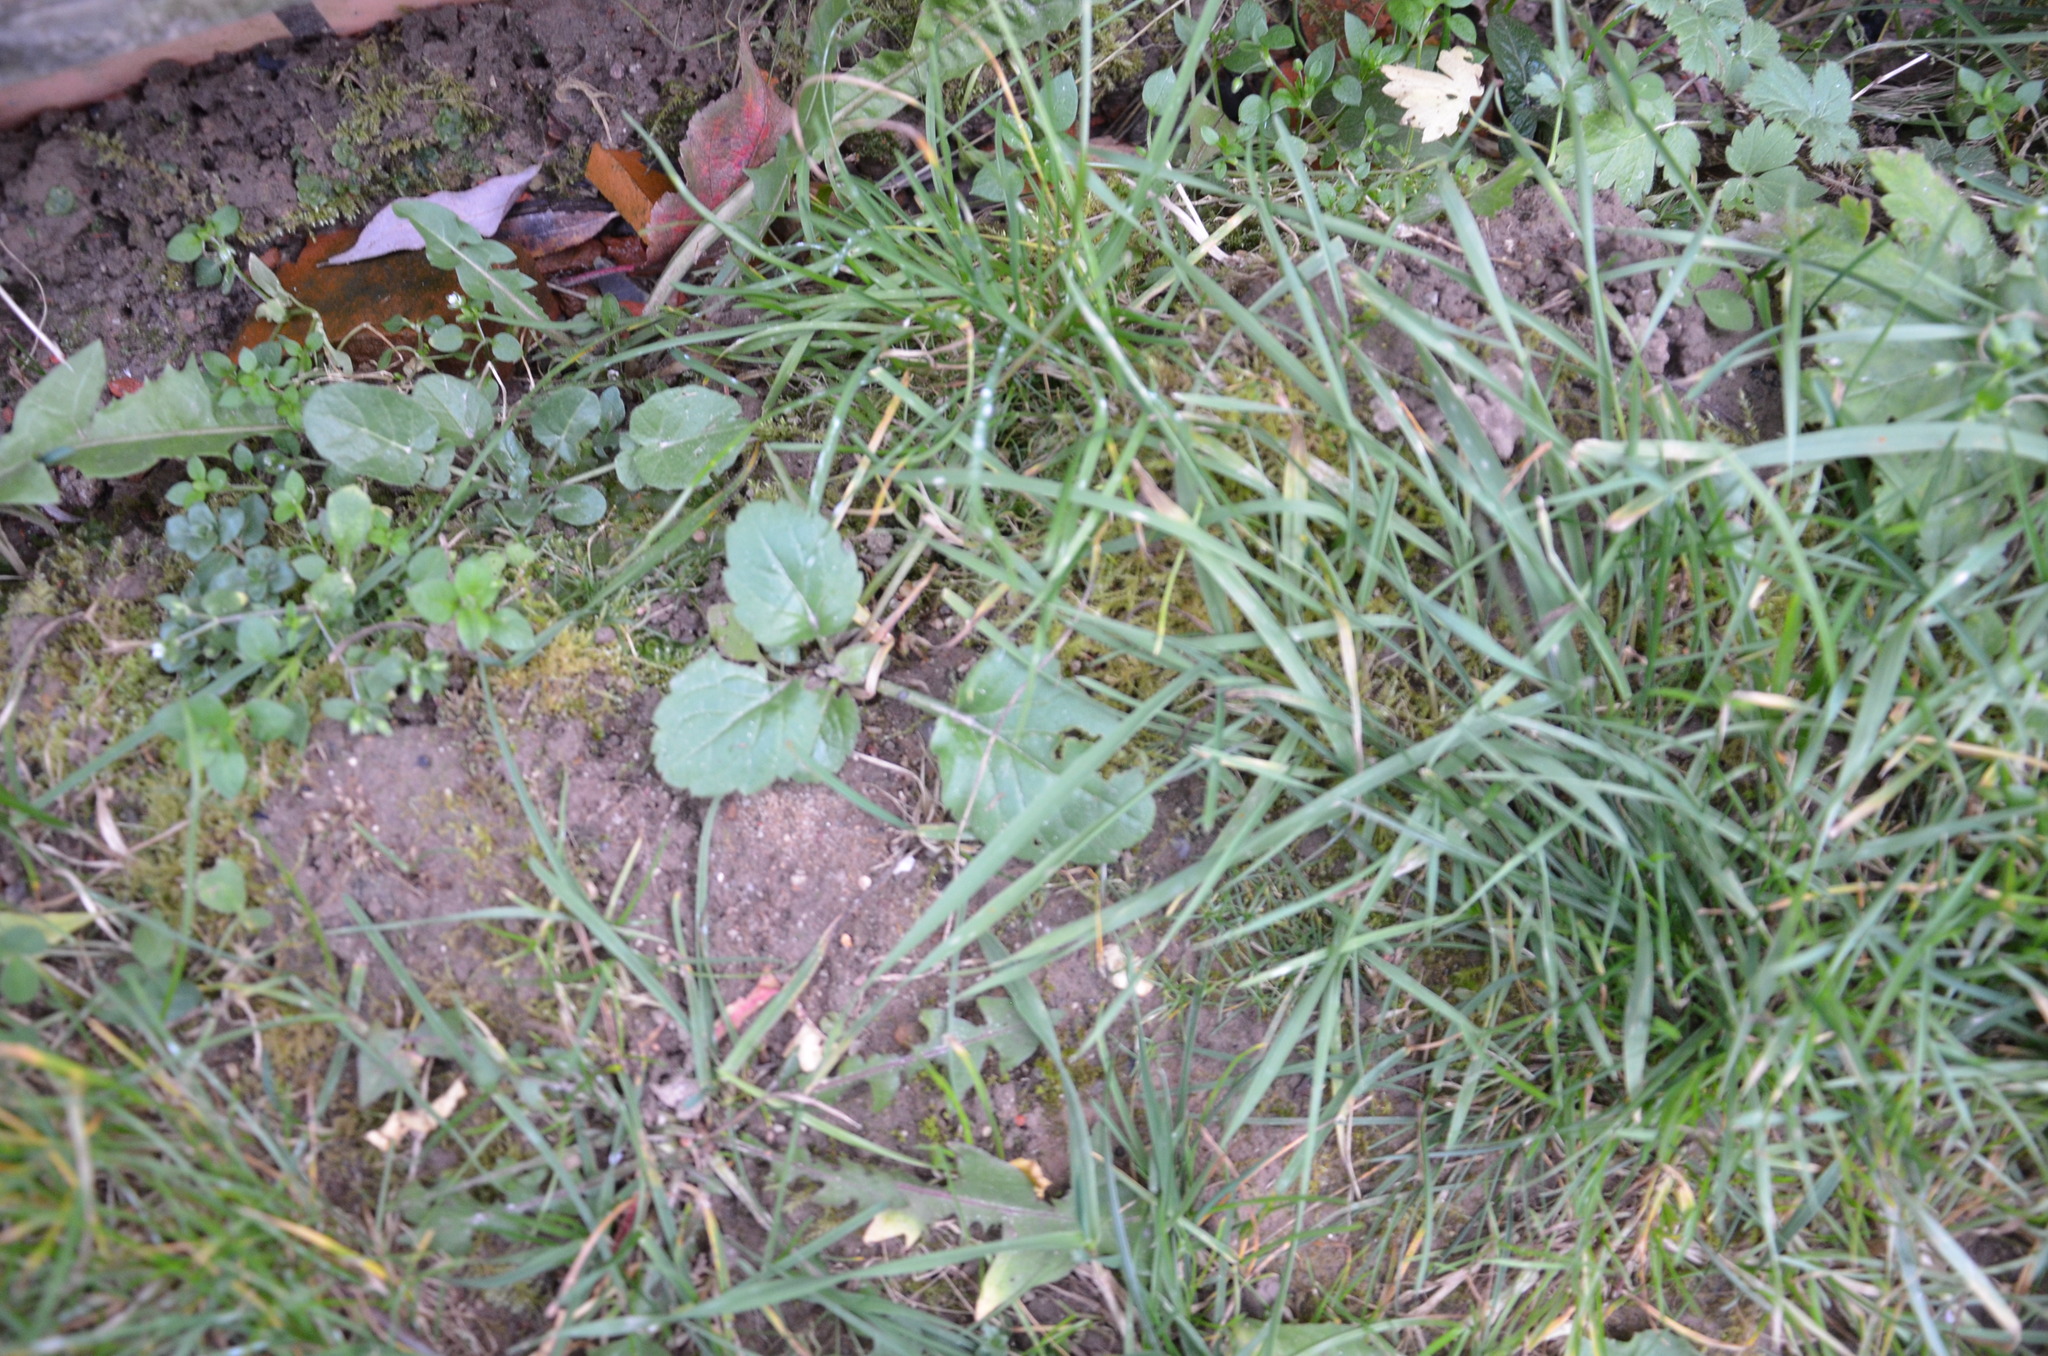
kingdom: Plantae
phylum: Tracheophyta
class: Magnoliopsida
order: Asterales
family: Asteraceae
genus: Erigeron
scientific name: Erigeron annuus
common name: Tall fleabane
